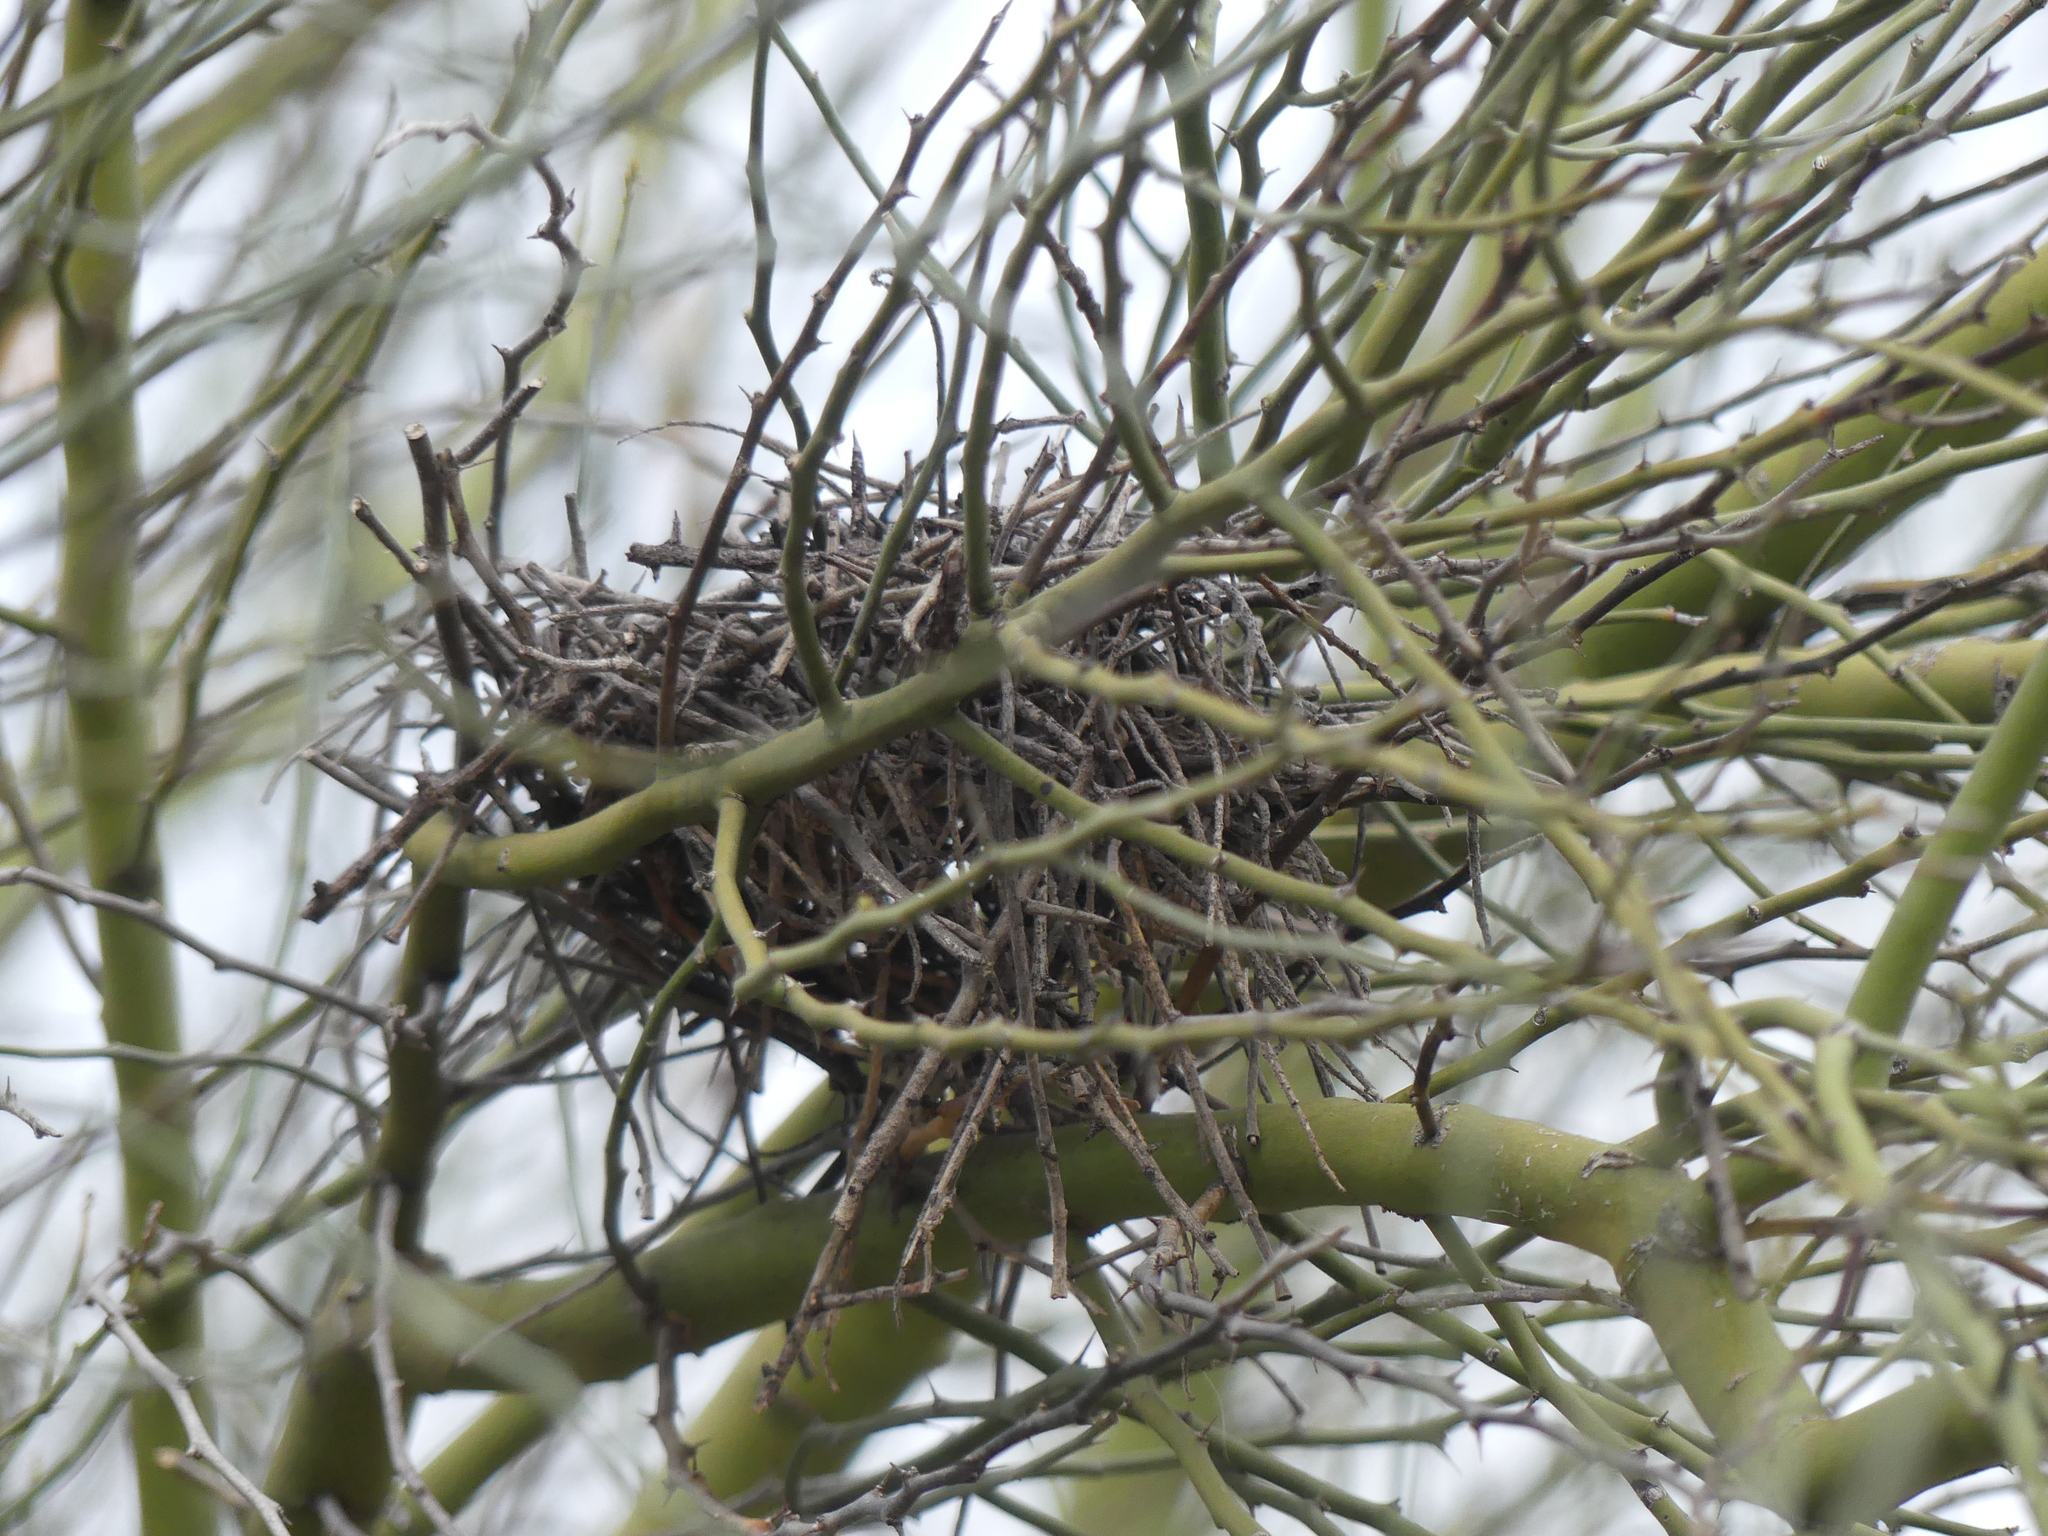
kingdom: Animalia
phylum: Chordata
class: Aves
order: Passeriformes
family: Remizidae
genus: Auriparus
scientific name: Auriparus flaviceps
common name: Verdin
